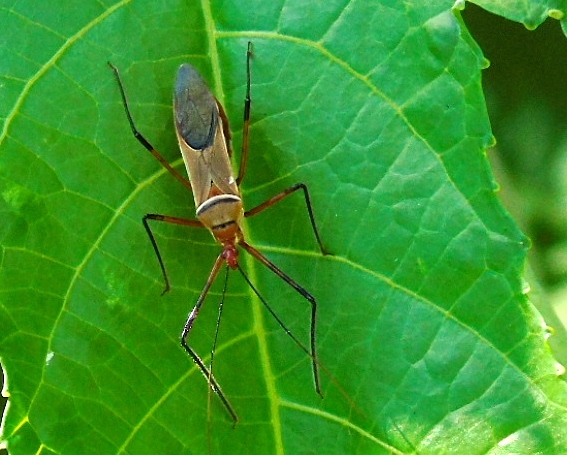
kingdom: Animalia
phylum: Arthropoda
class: Insecta
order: Hemiptera
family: Reduviidae
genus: Zelus
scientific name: Zelus grassans
